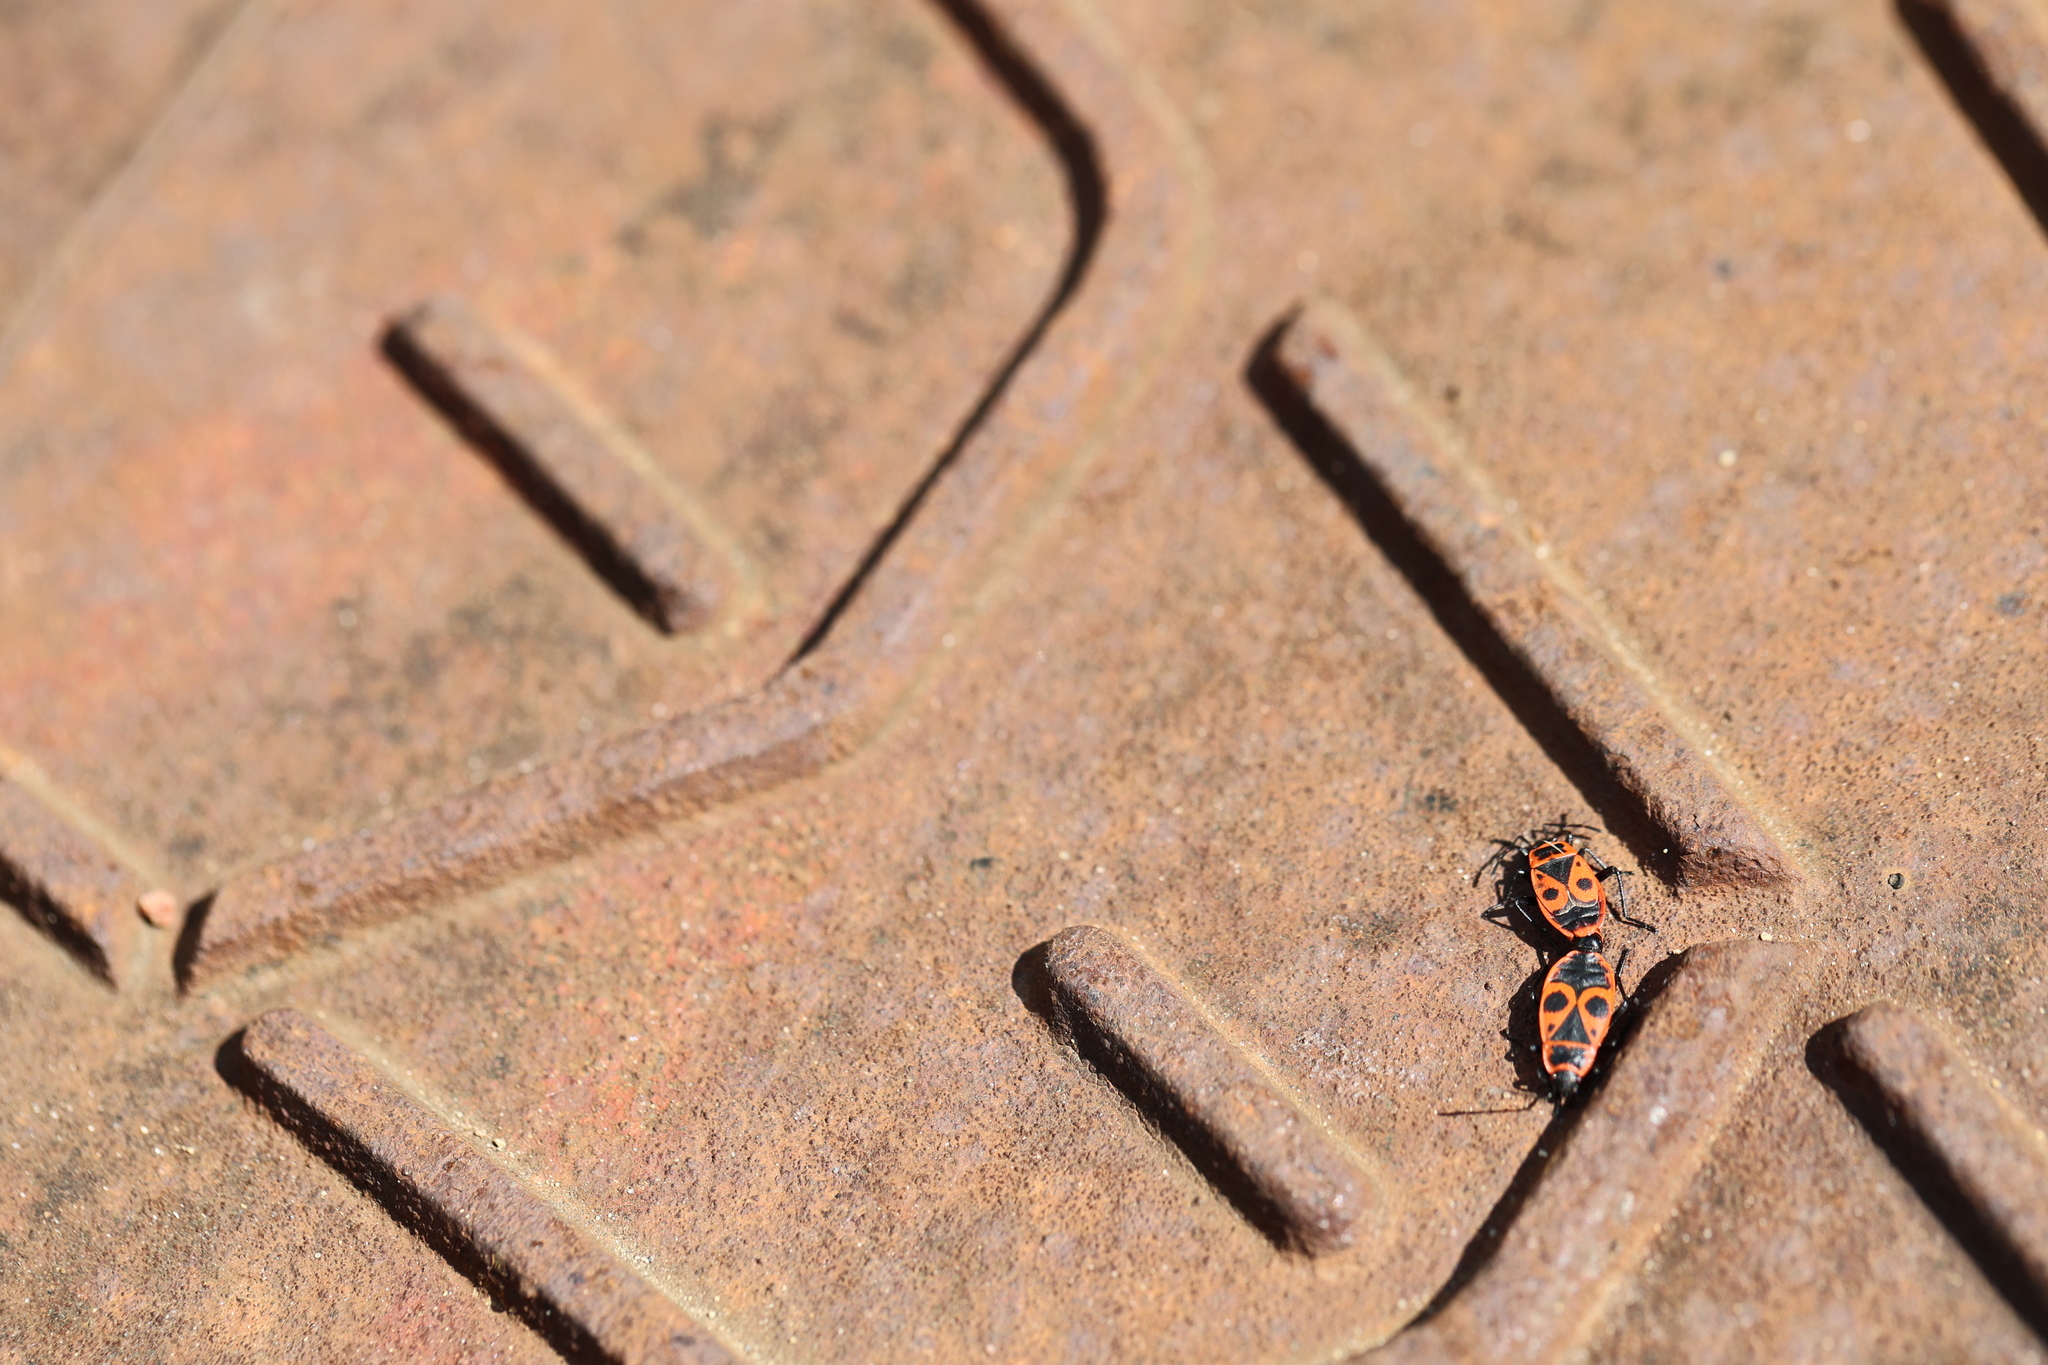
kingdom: Animalia
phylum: Arthropoda
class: Insecta
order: Hemiptera
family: Pyrrhocoridae
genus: Pyrrhocoris
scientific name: Pyrrhocoris apterus
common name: Firebug
